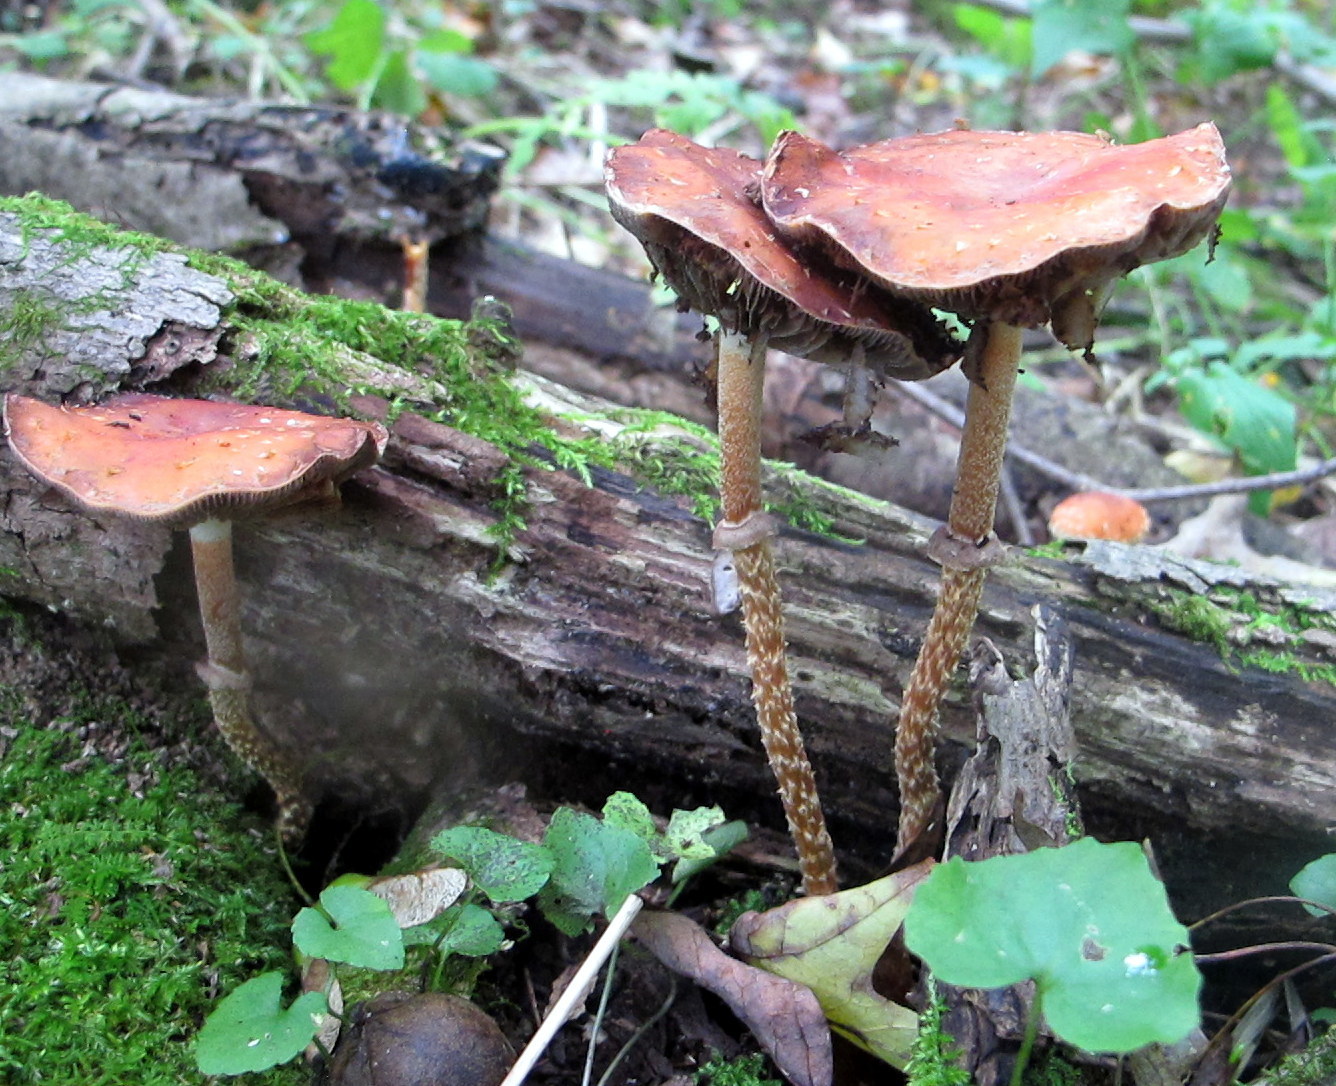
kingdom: Fungi
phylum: Basidiomycota
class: Agaricomycetes
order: Agaricales
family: Strophariaceae
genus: Leratiomyces
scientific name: Leratiomyces squamosus
